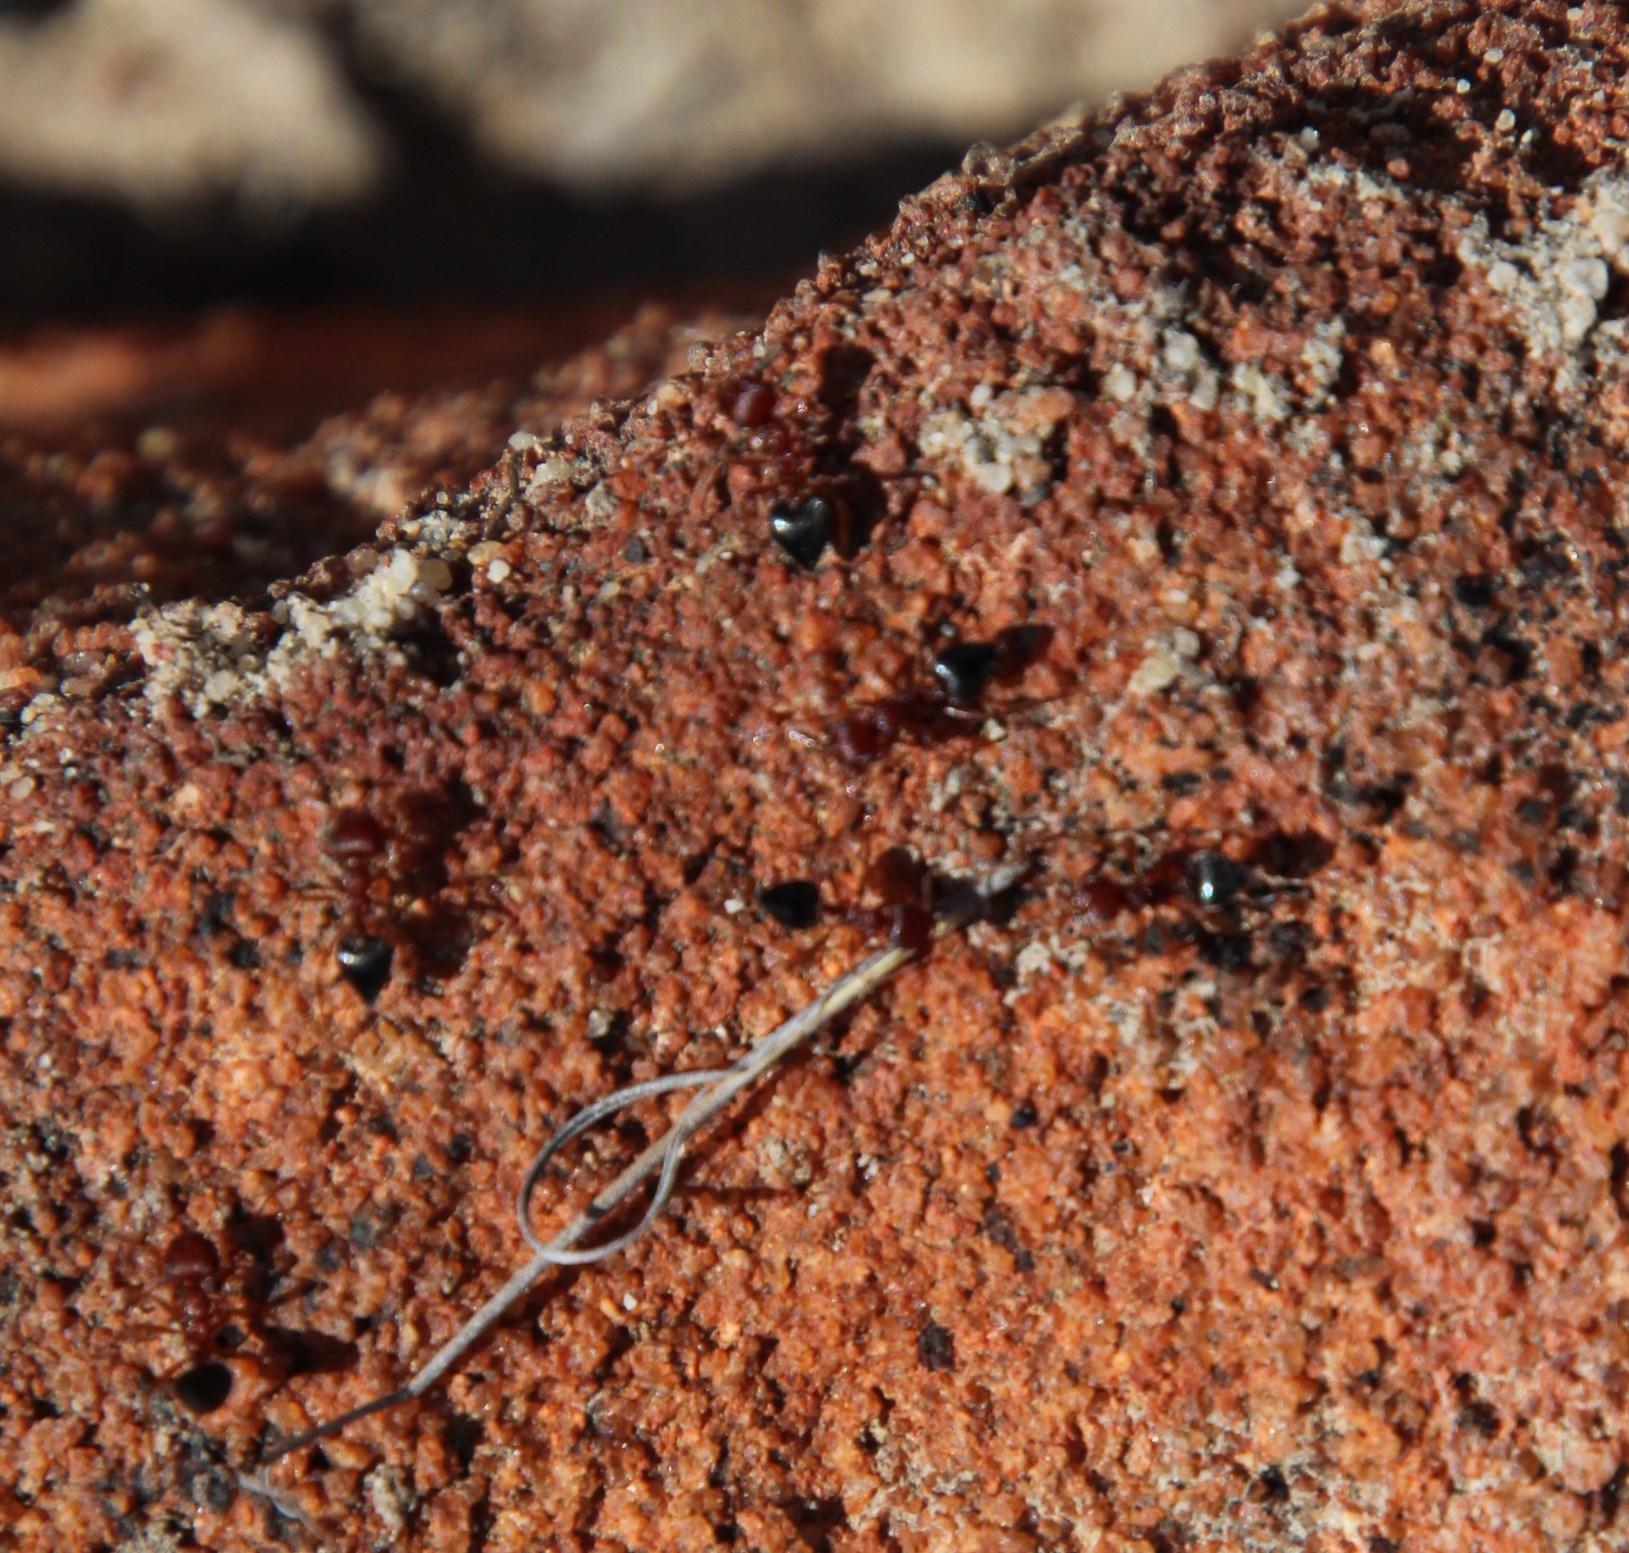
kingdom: Animalia
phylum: Arthropoda
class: Insecta
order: Hymenoptera
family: Formicidae
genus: Crematogaster
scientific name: Crematogaster melanogaster
